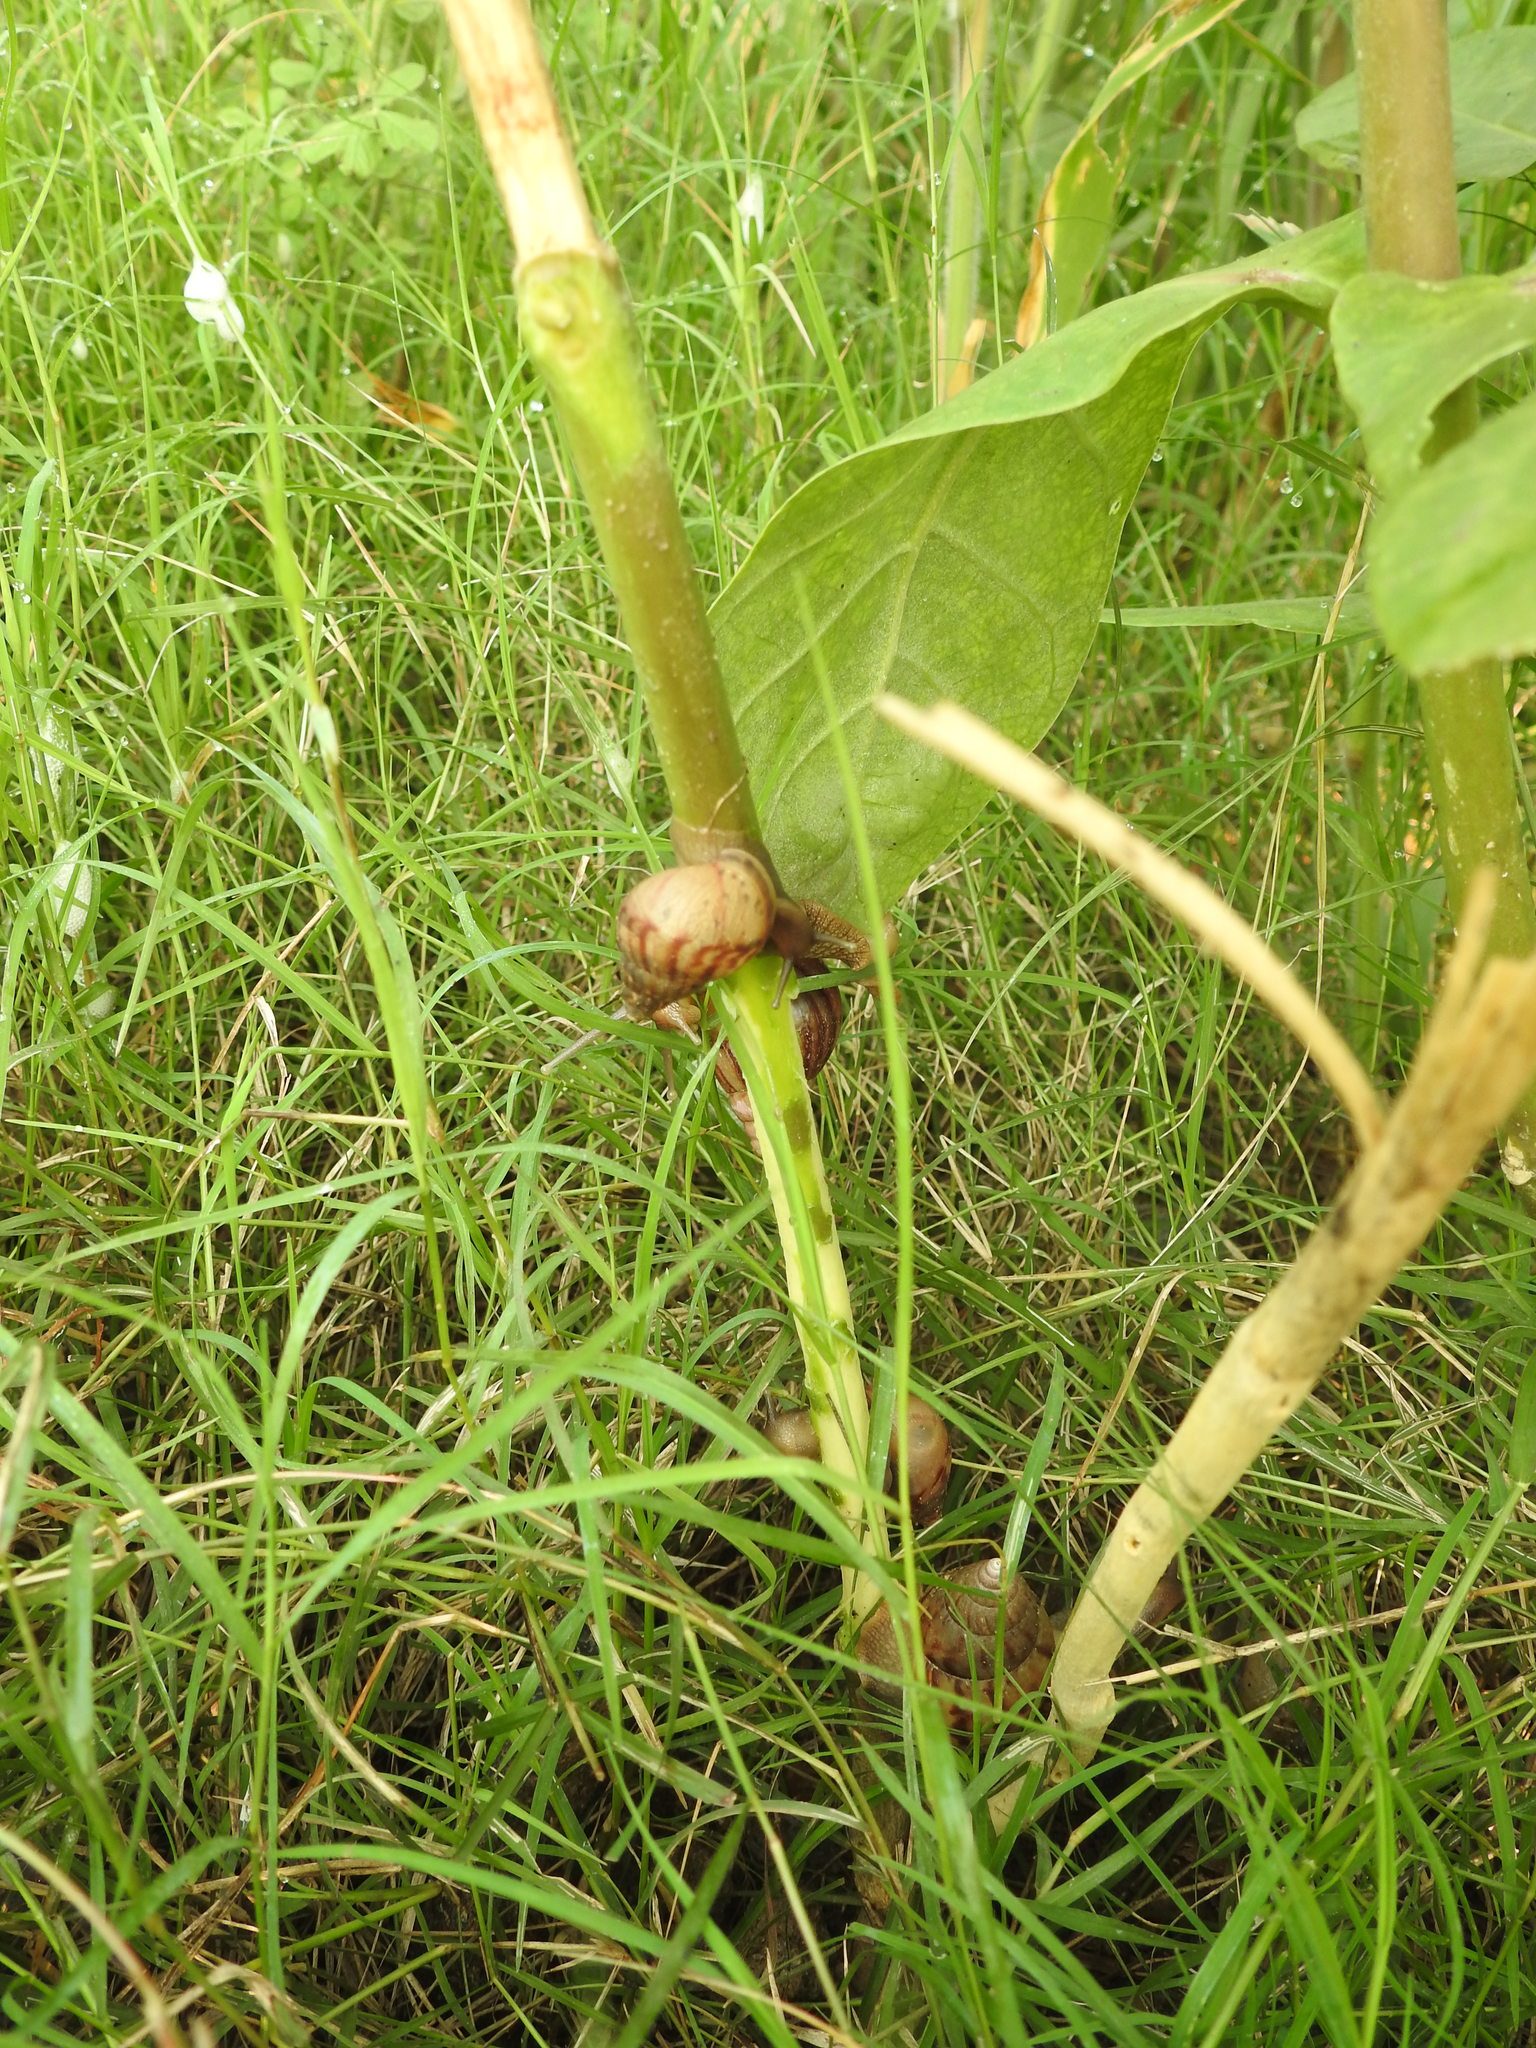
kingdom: Animalia
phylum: Mollusca
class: Gastropoda
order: Stylommatophora
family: Achatinidae
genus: Lissachatina
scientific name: Lissachatina fulica
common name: Giant african snail
